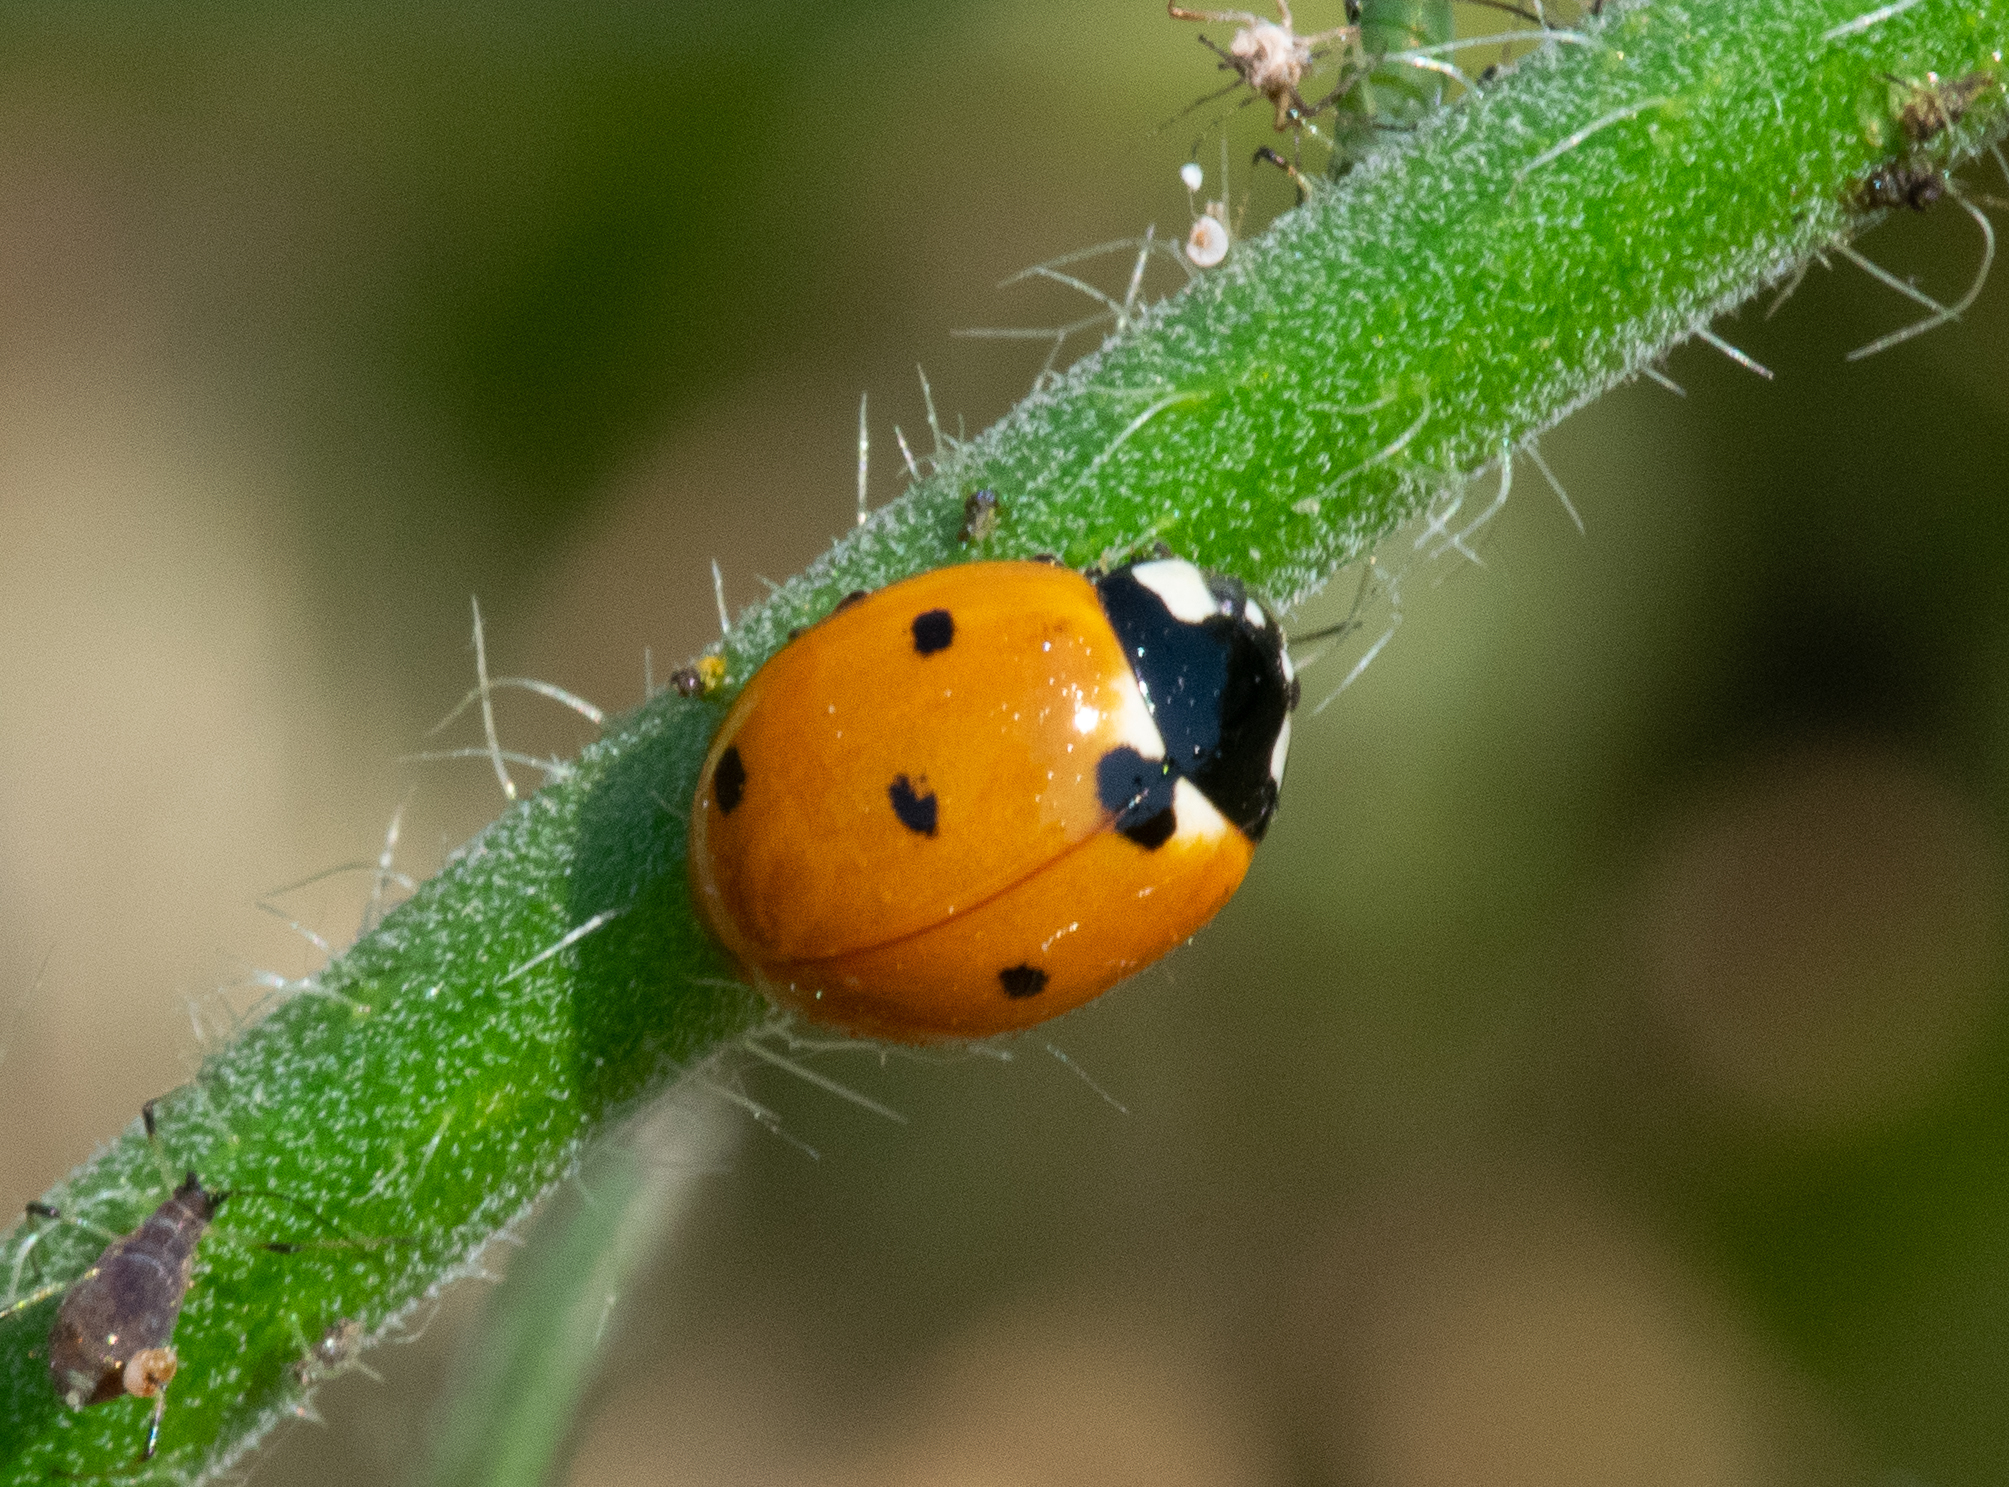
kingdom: Animalia
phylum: Arthropoda
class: Insecta
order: Coleoptera
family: Coccinellidae
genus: Coccinella
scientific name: Coccinella septempunctata
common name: Sevenspotted lady beetle
